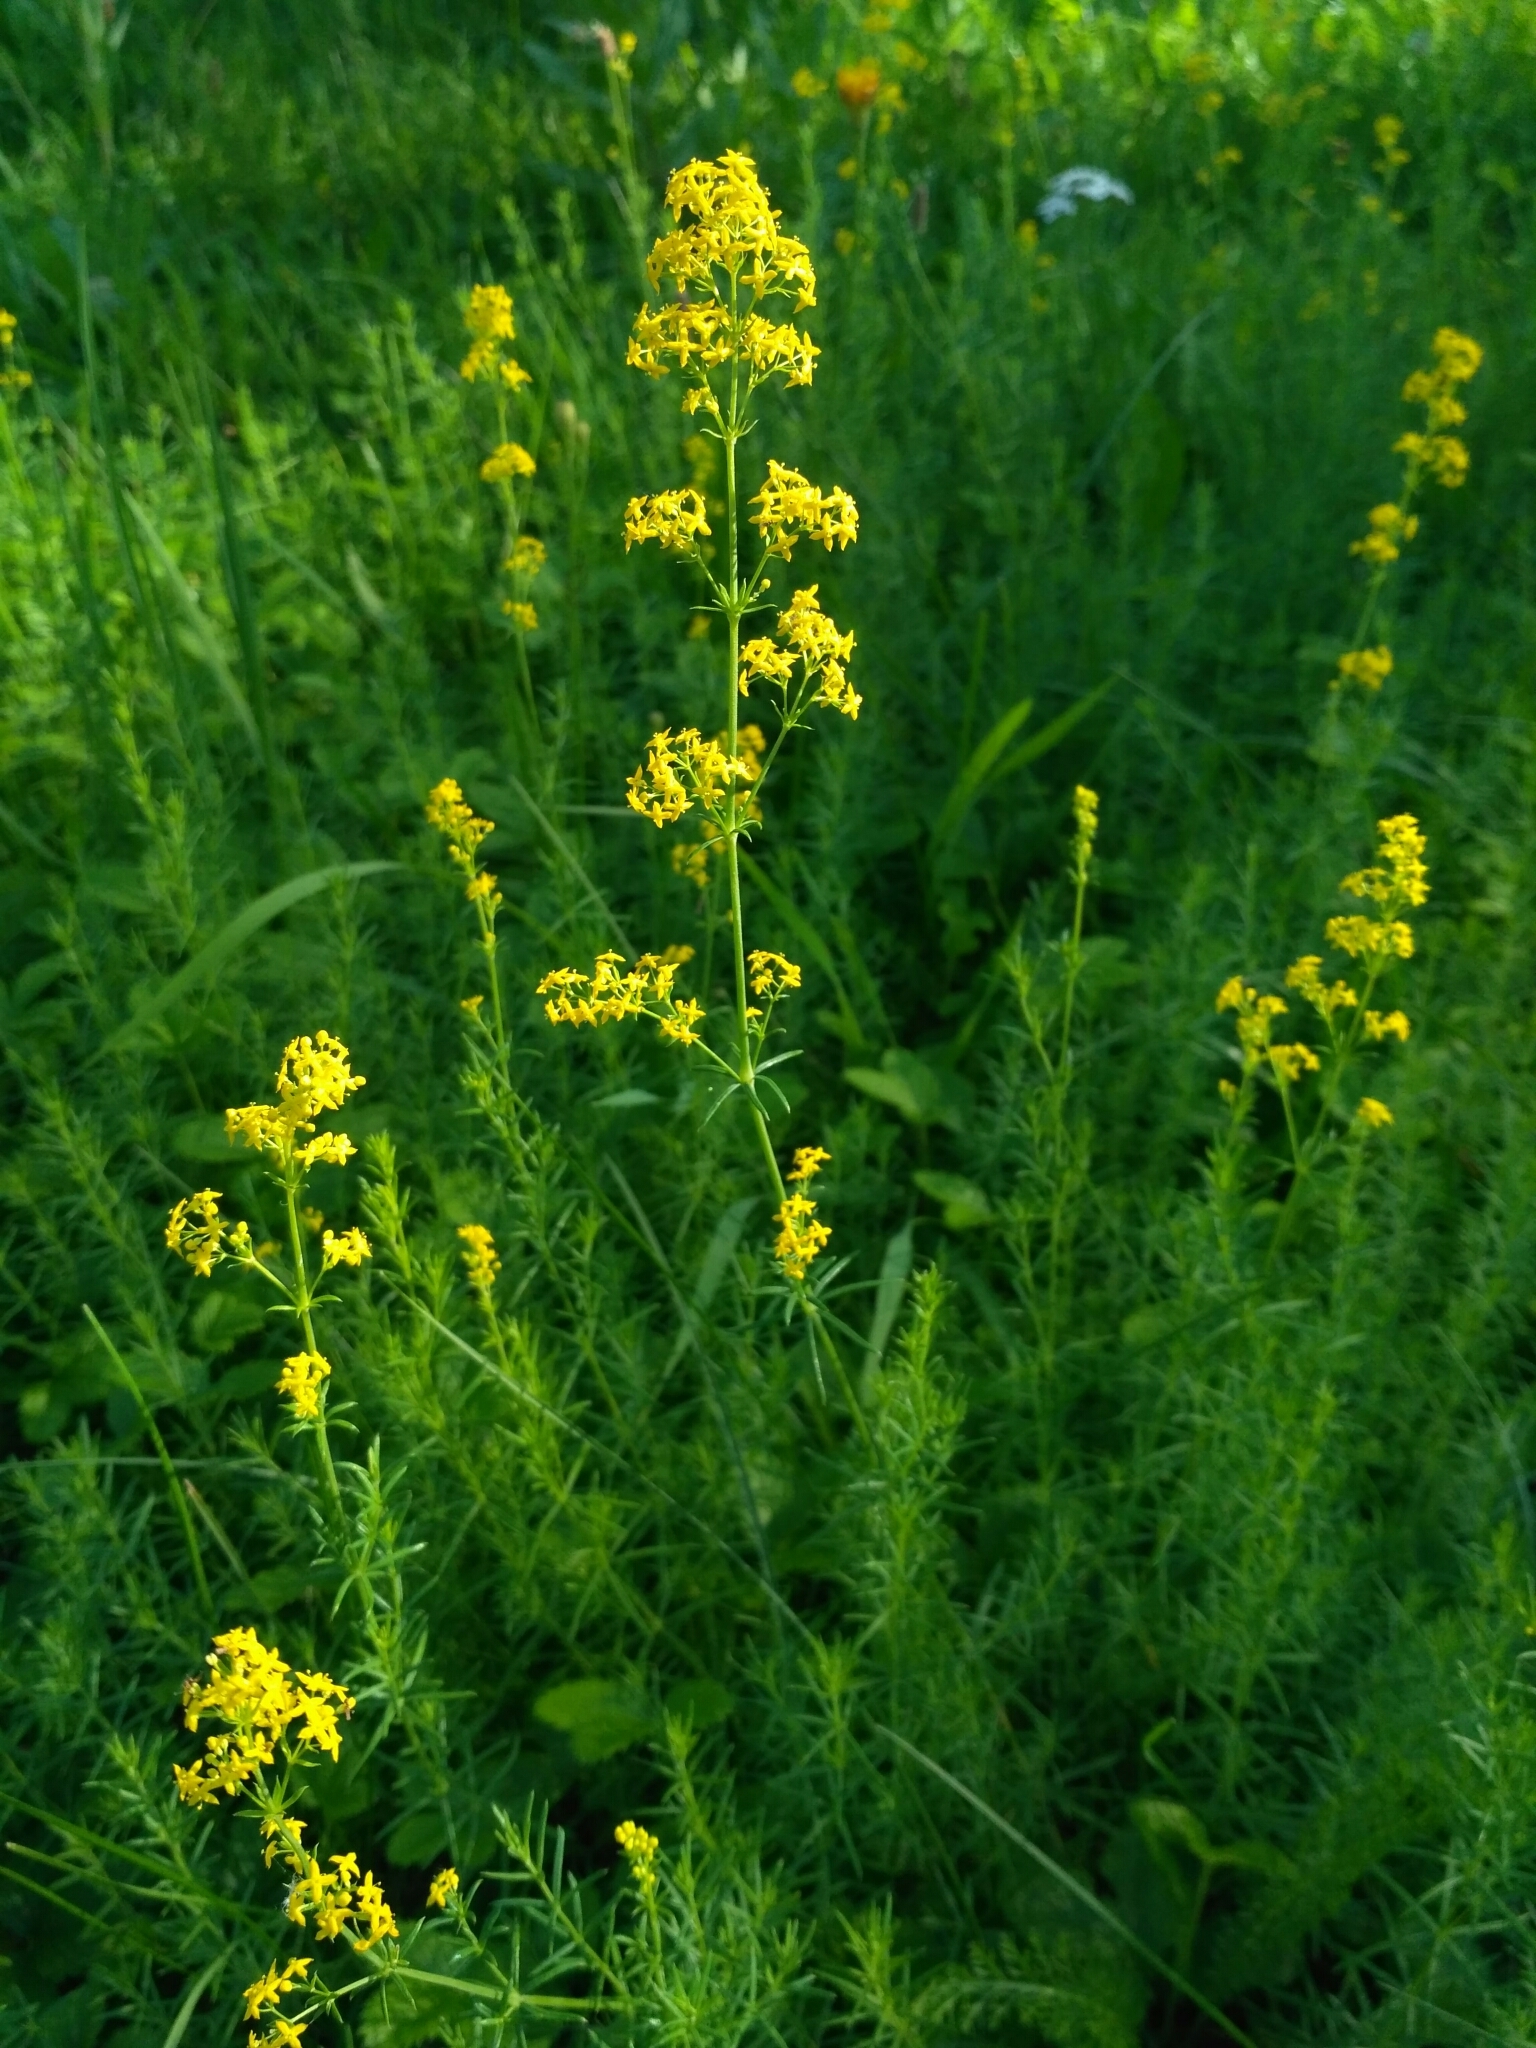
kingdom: Plantae
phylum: Tracheophyta
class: Magnoliopsida
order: Gentianales
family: Rubiaceae
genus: Galium
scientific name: Galium verum
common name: Lady's bedstraw
